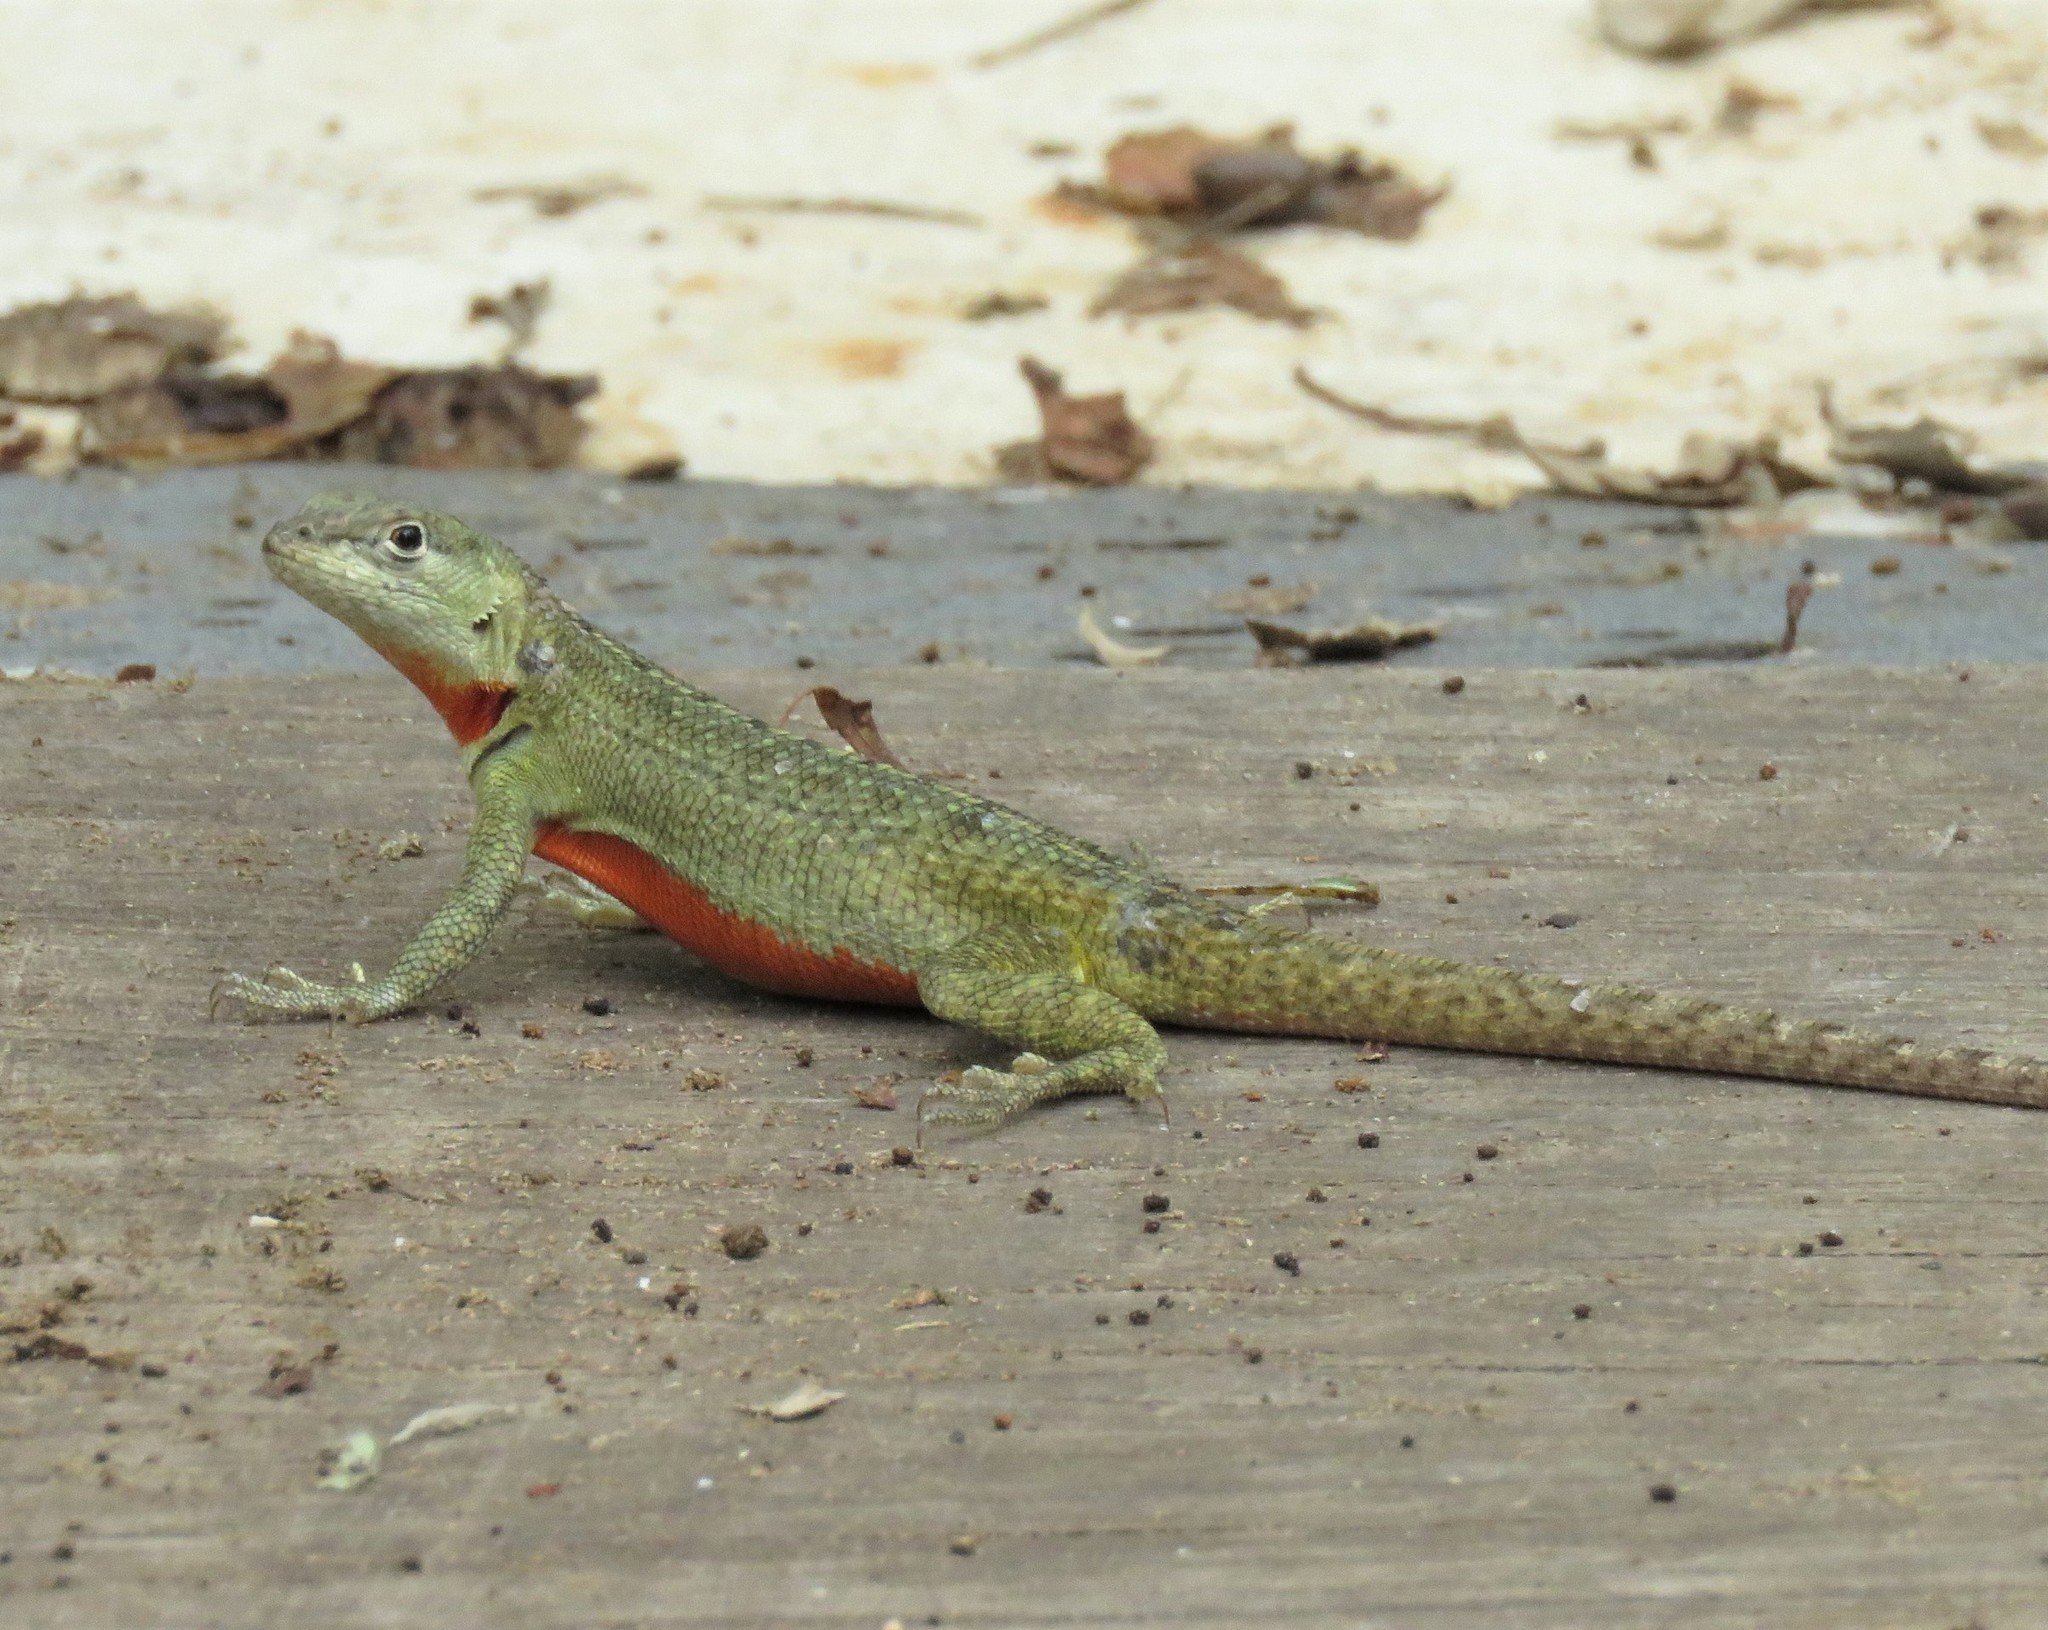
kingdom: Animalia
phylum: Chordata
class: Squamata
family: Tropiduridae
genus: Microlophus
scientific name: Microlophus bivittatus
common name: San cristobal lava lizard
